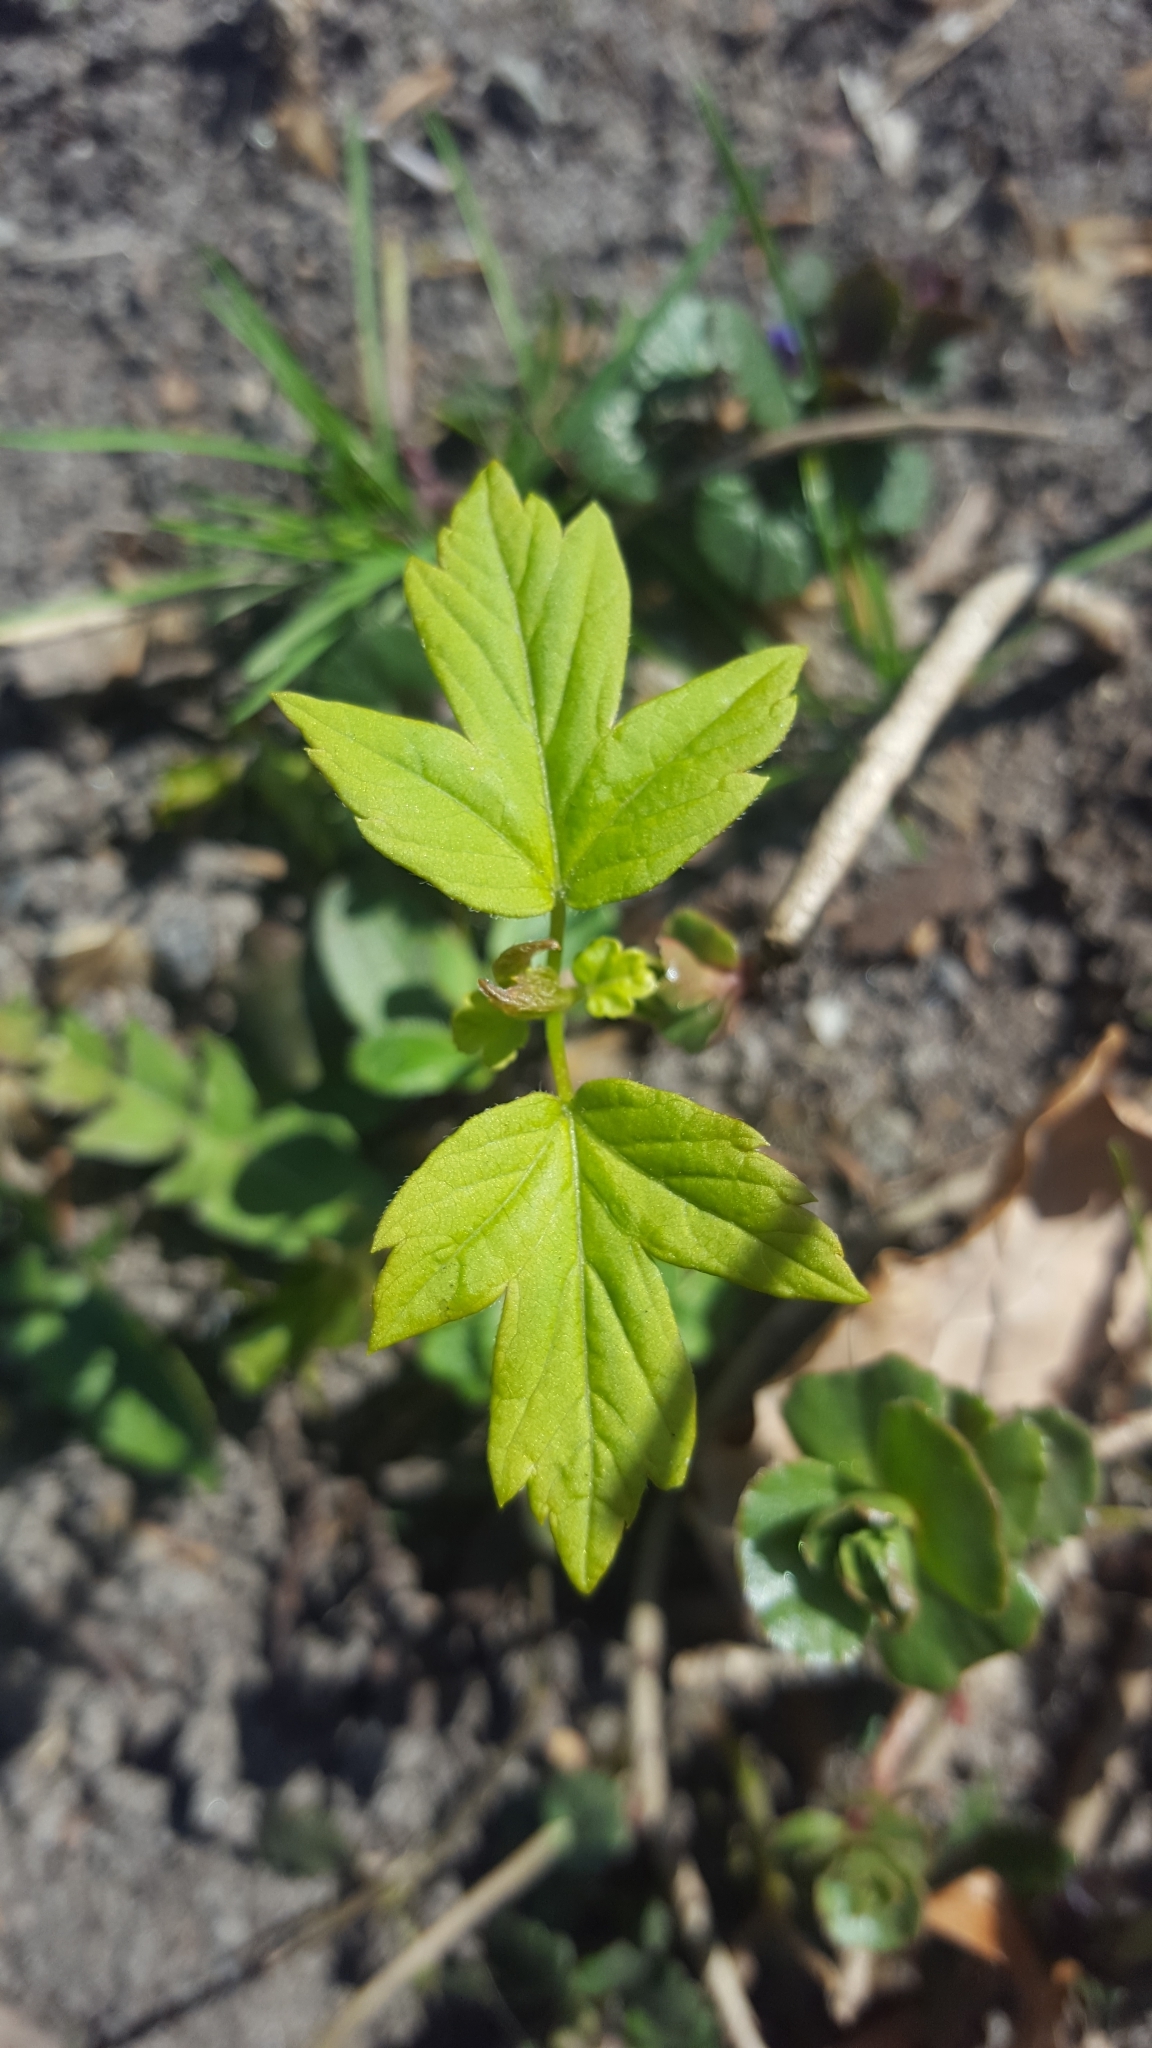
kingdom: Plantae
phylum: Tracheophyta
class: Magnoliopsida
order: Sapindales
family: Sapindaceae
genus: Acer
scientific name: Acer negundo
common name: Ashleaf maple
